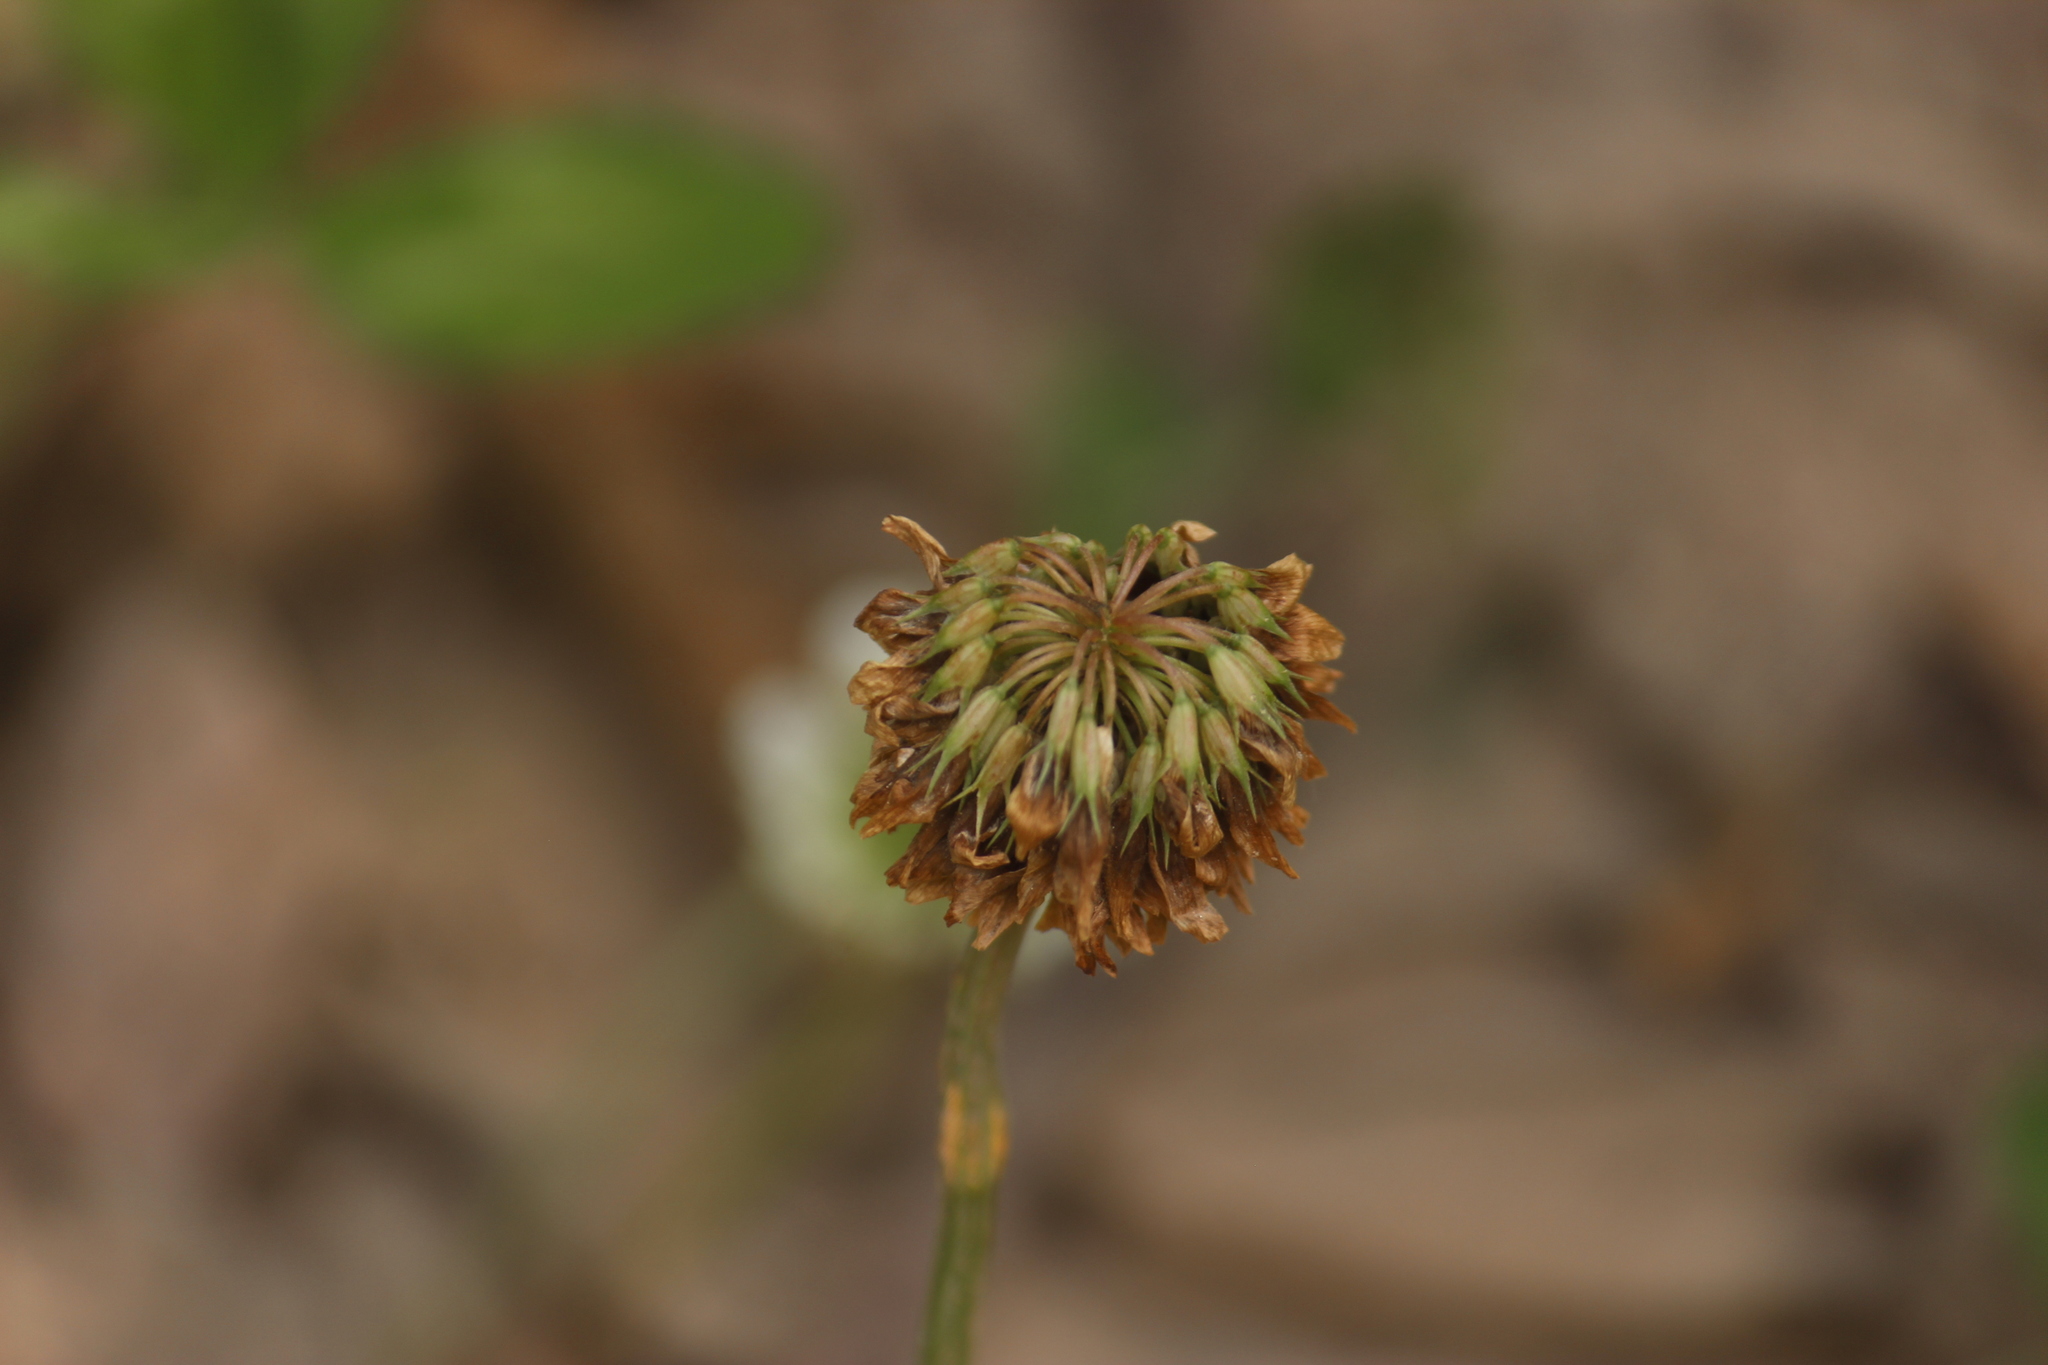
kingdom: Plantae
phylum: Tracheophyta
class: Magnoliopsida
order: Fabales
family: Fabaceae
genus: Trifolium
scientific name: Trifolium repens
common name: White clover
